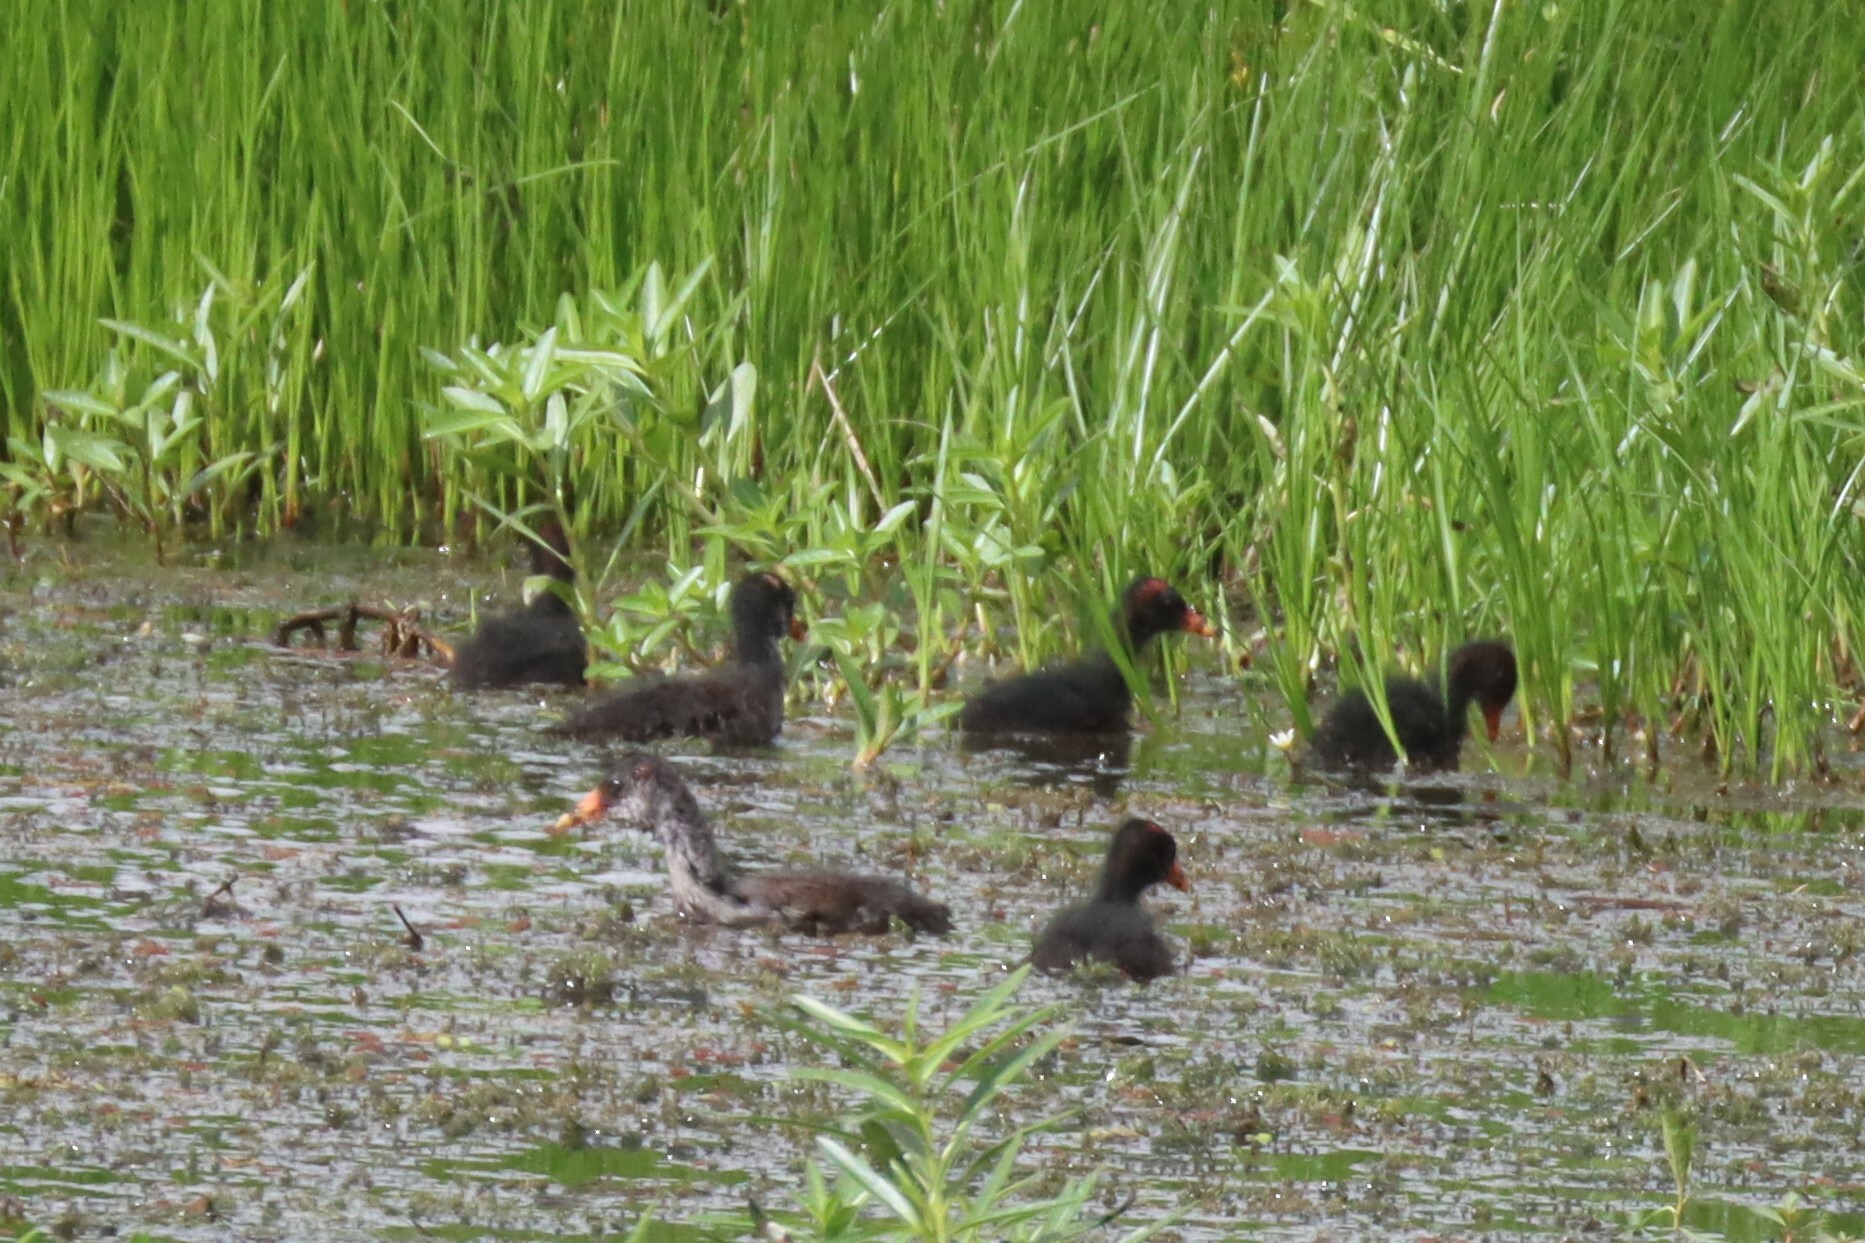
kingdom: Animalia
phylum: Chordata
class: Aves
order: Gruiformes
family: Rallidae
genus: Gallinula
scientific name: Gallinula chloropus
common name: Common moorhen
